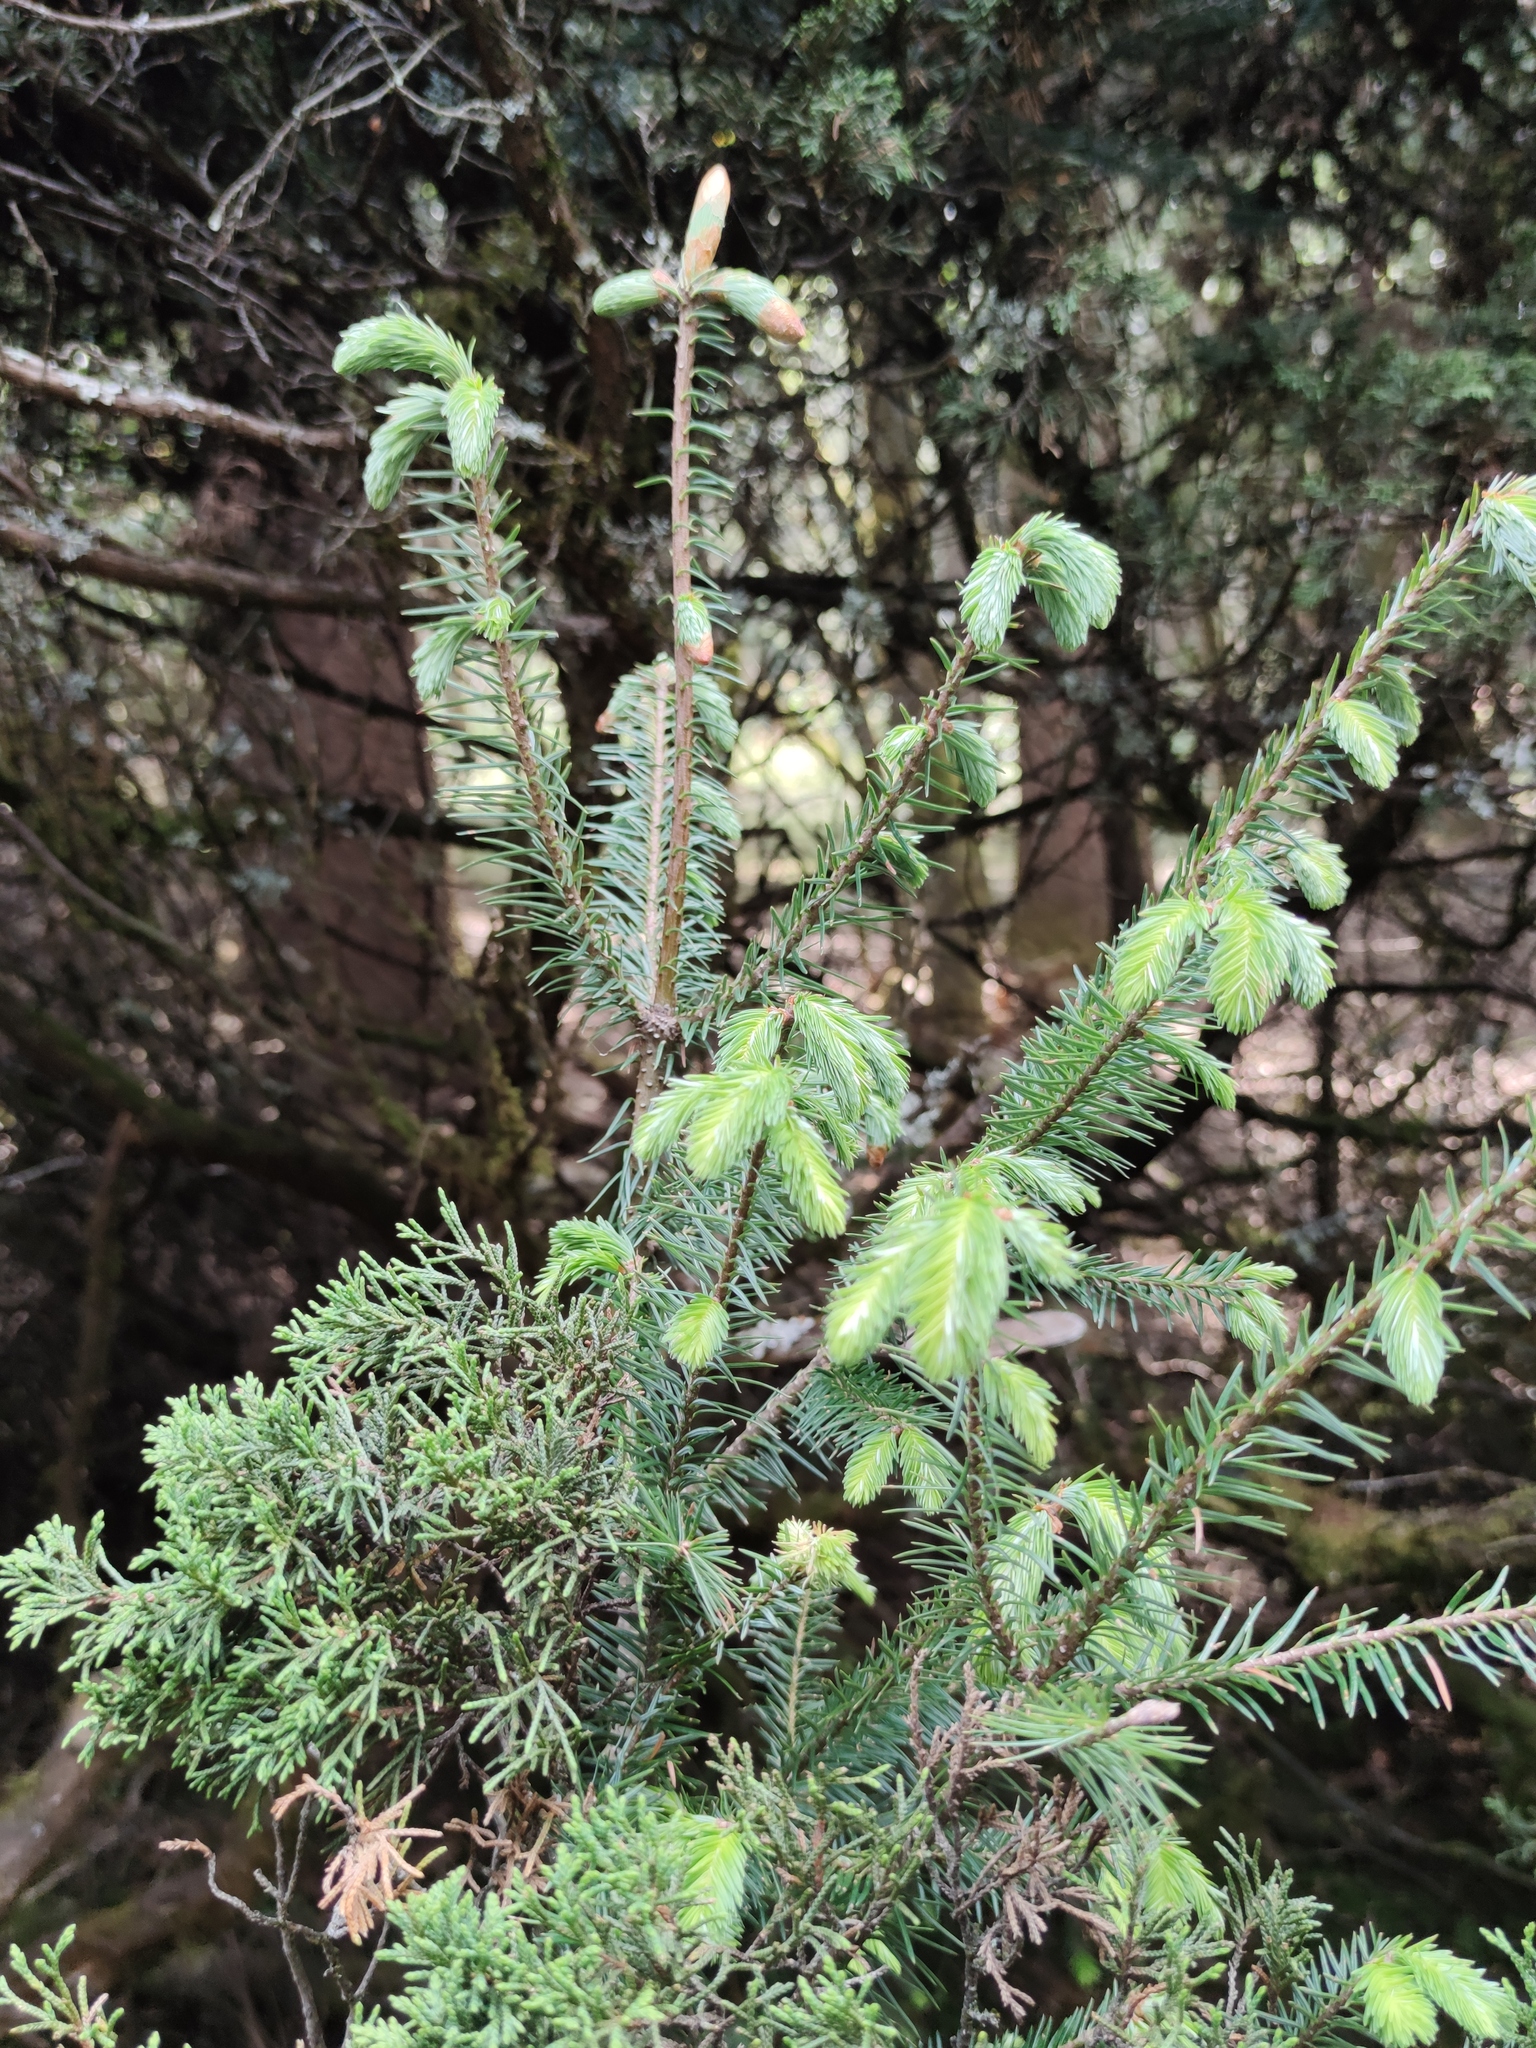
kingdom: Plantae
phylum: Tracheophyta
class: Pinopsida
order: Pinales
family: Pinaceae
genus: Abies
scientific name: Abies religiosa
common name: Sacred fir
